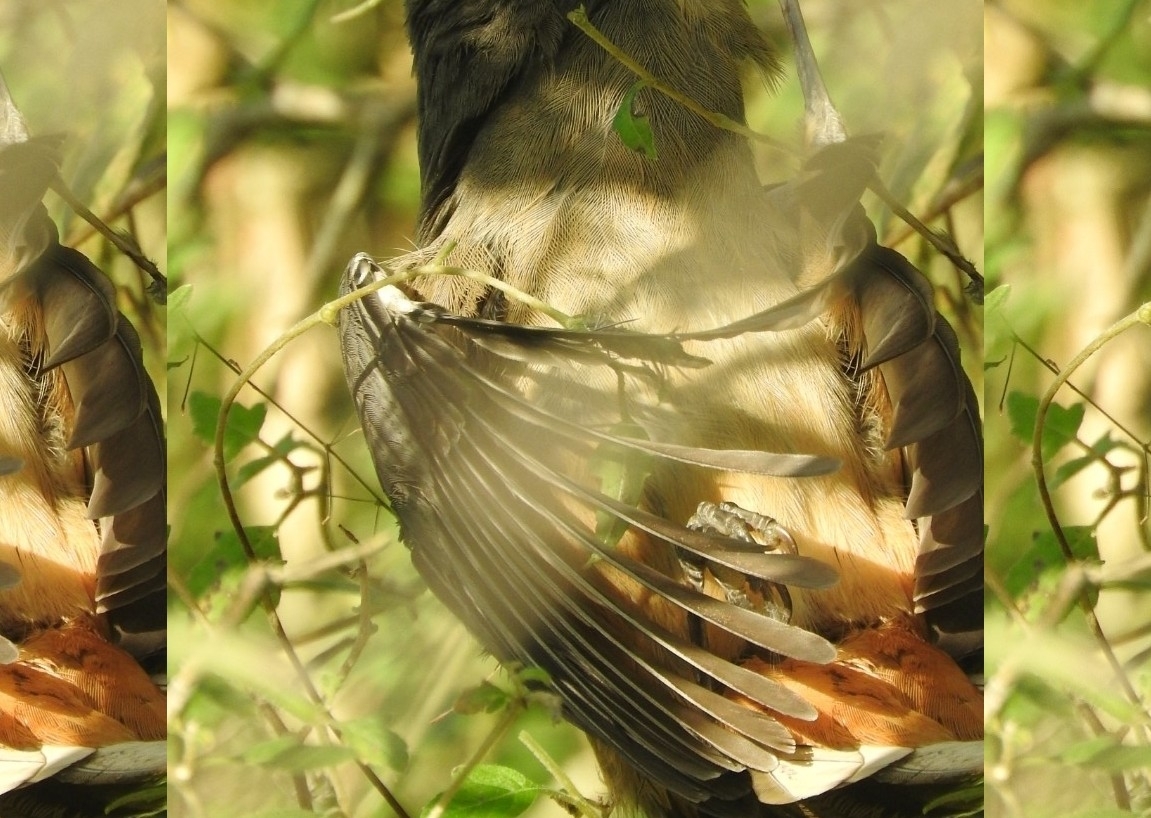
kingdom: Animalia
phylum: Chordata
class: Aves
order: Passeriformes
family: Thraupidae
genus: Saltator
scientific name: Saltator grandis
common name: Cinnamon-bellied saltator
